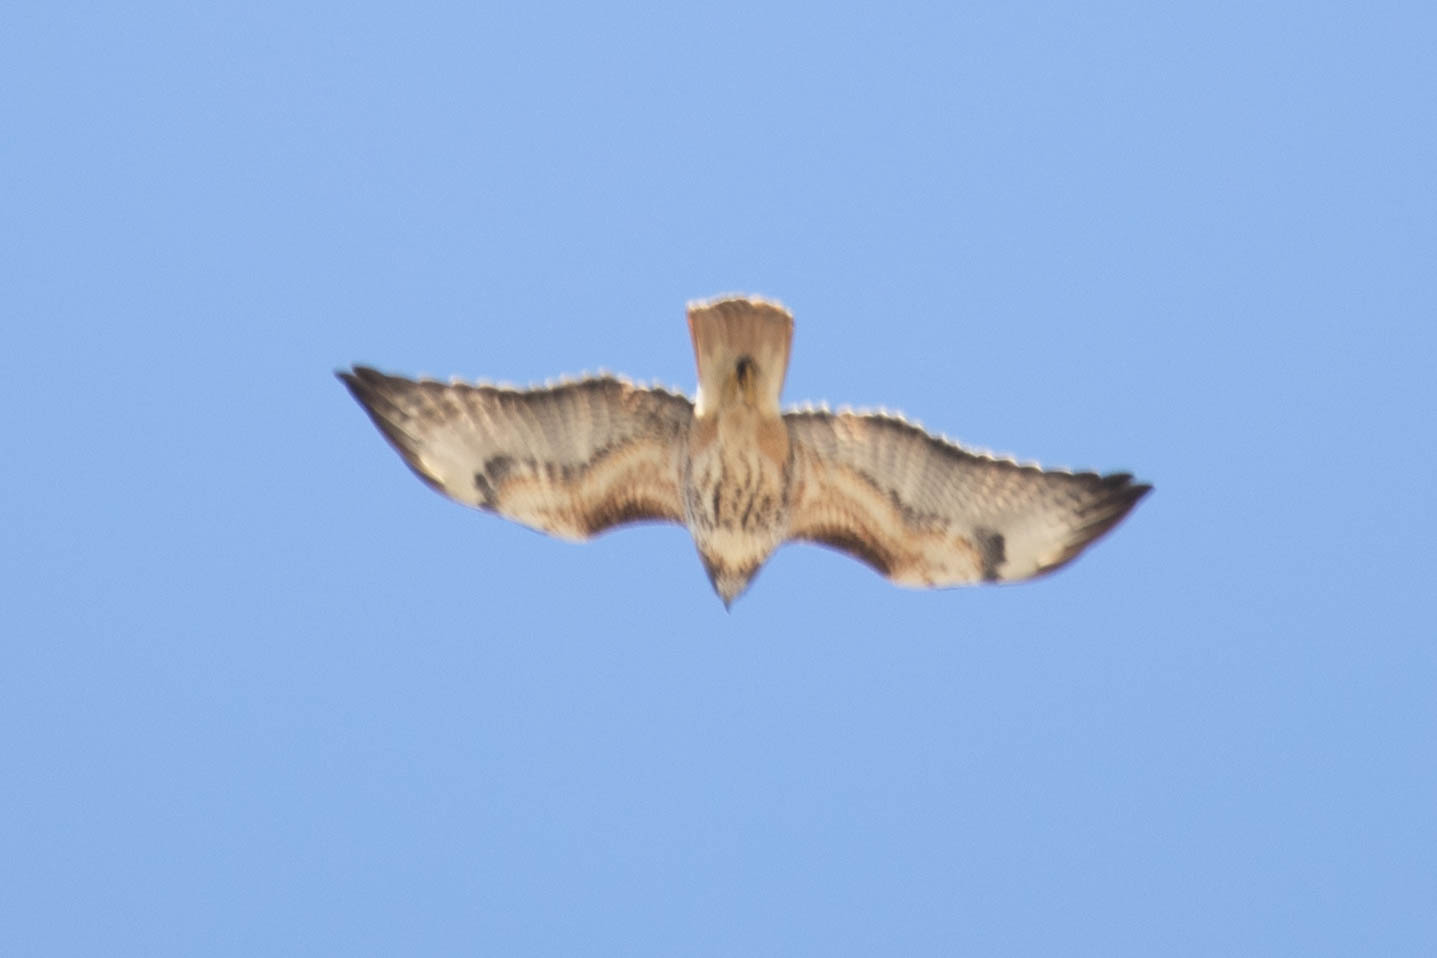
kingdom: Animalia
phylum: Chordata
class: Aves
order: Accipitriformes
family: Accipitridae
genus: Buteo
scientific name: Buteo jamaicensis
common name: Red-tailed hawk
